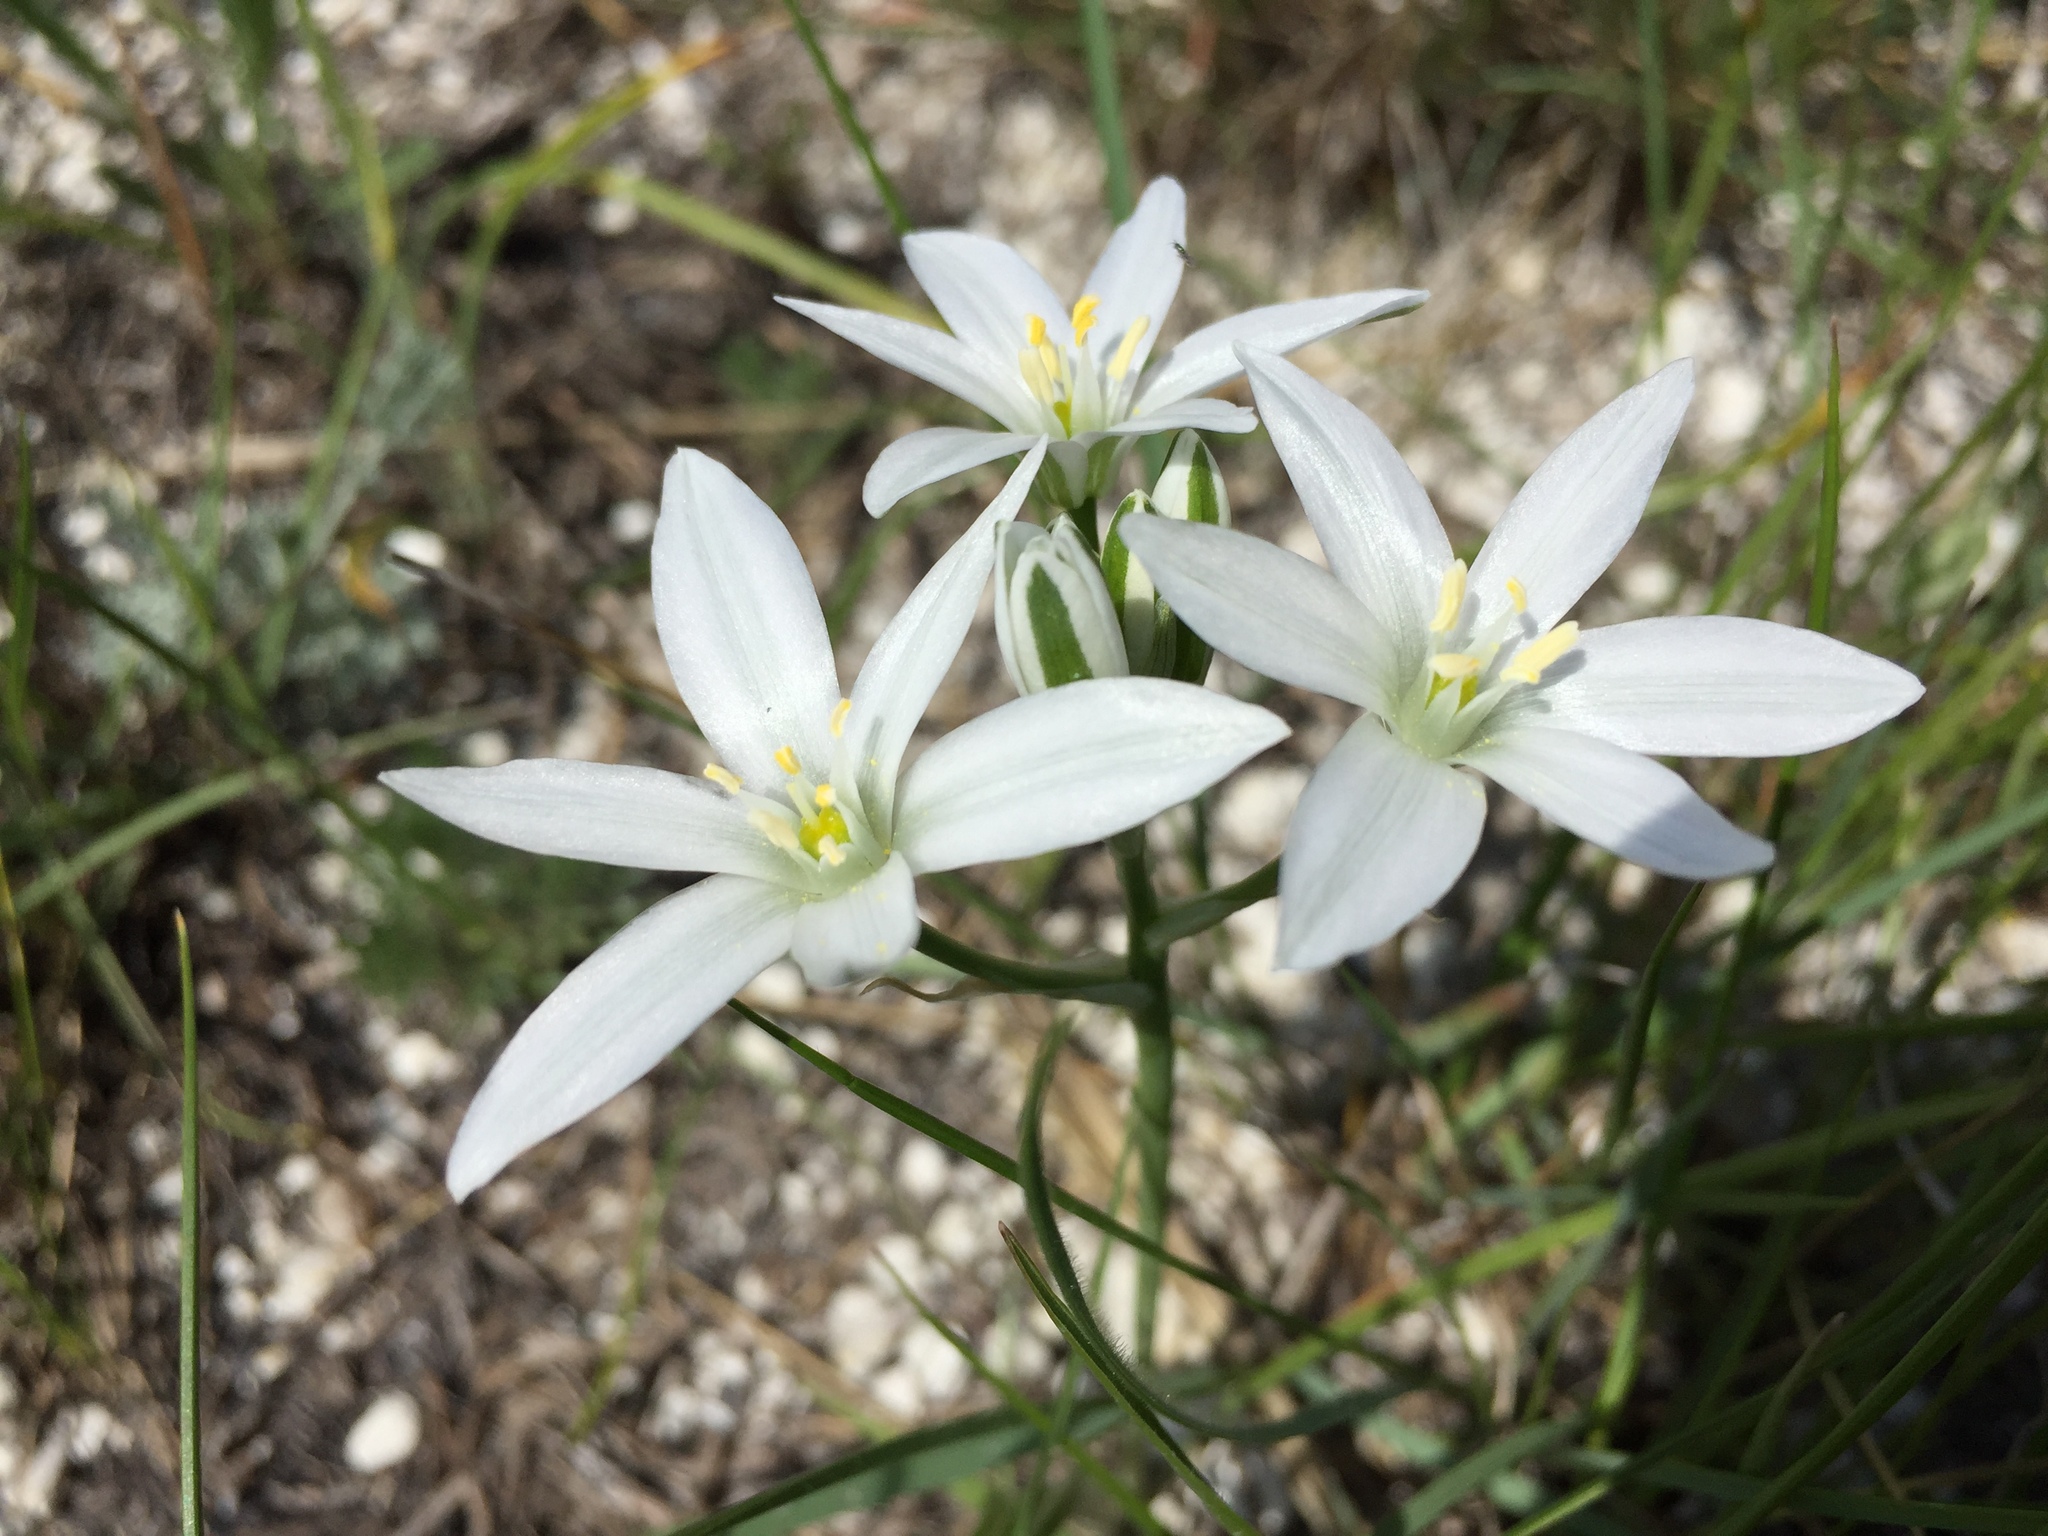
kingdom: Plantae
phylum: Tracheophyta
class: Liliopsida
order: Asparagales
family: Asparagaceae
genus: Ornithogalum
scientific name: Ornithogalum orthophyllum
